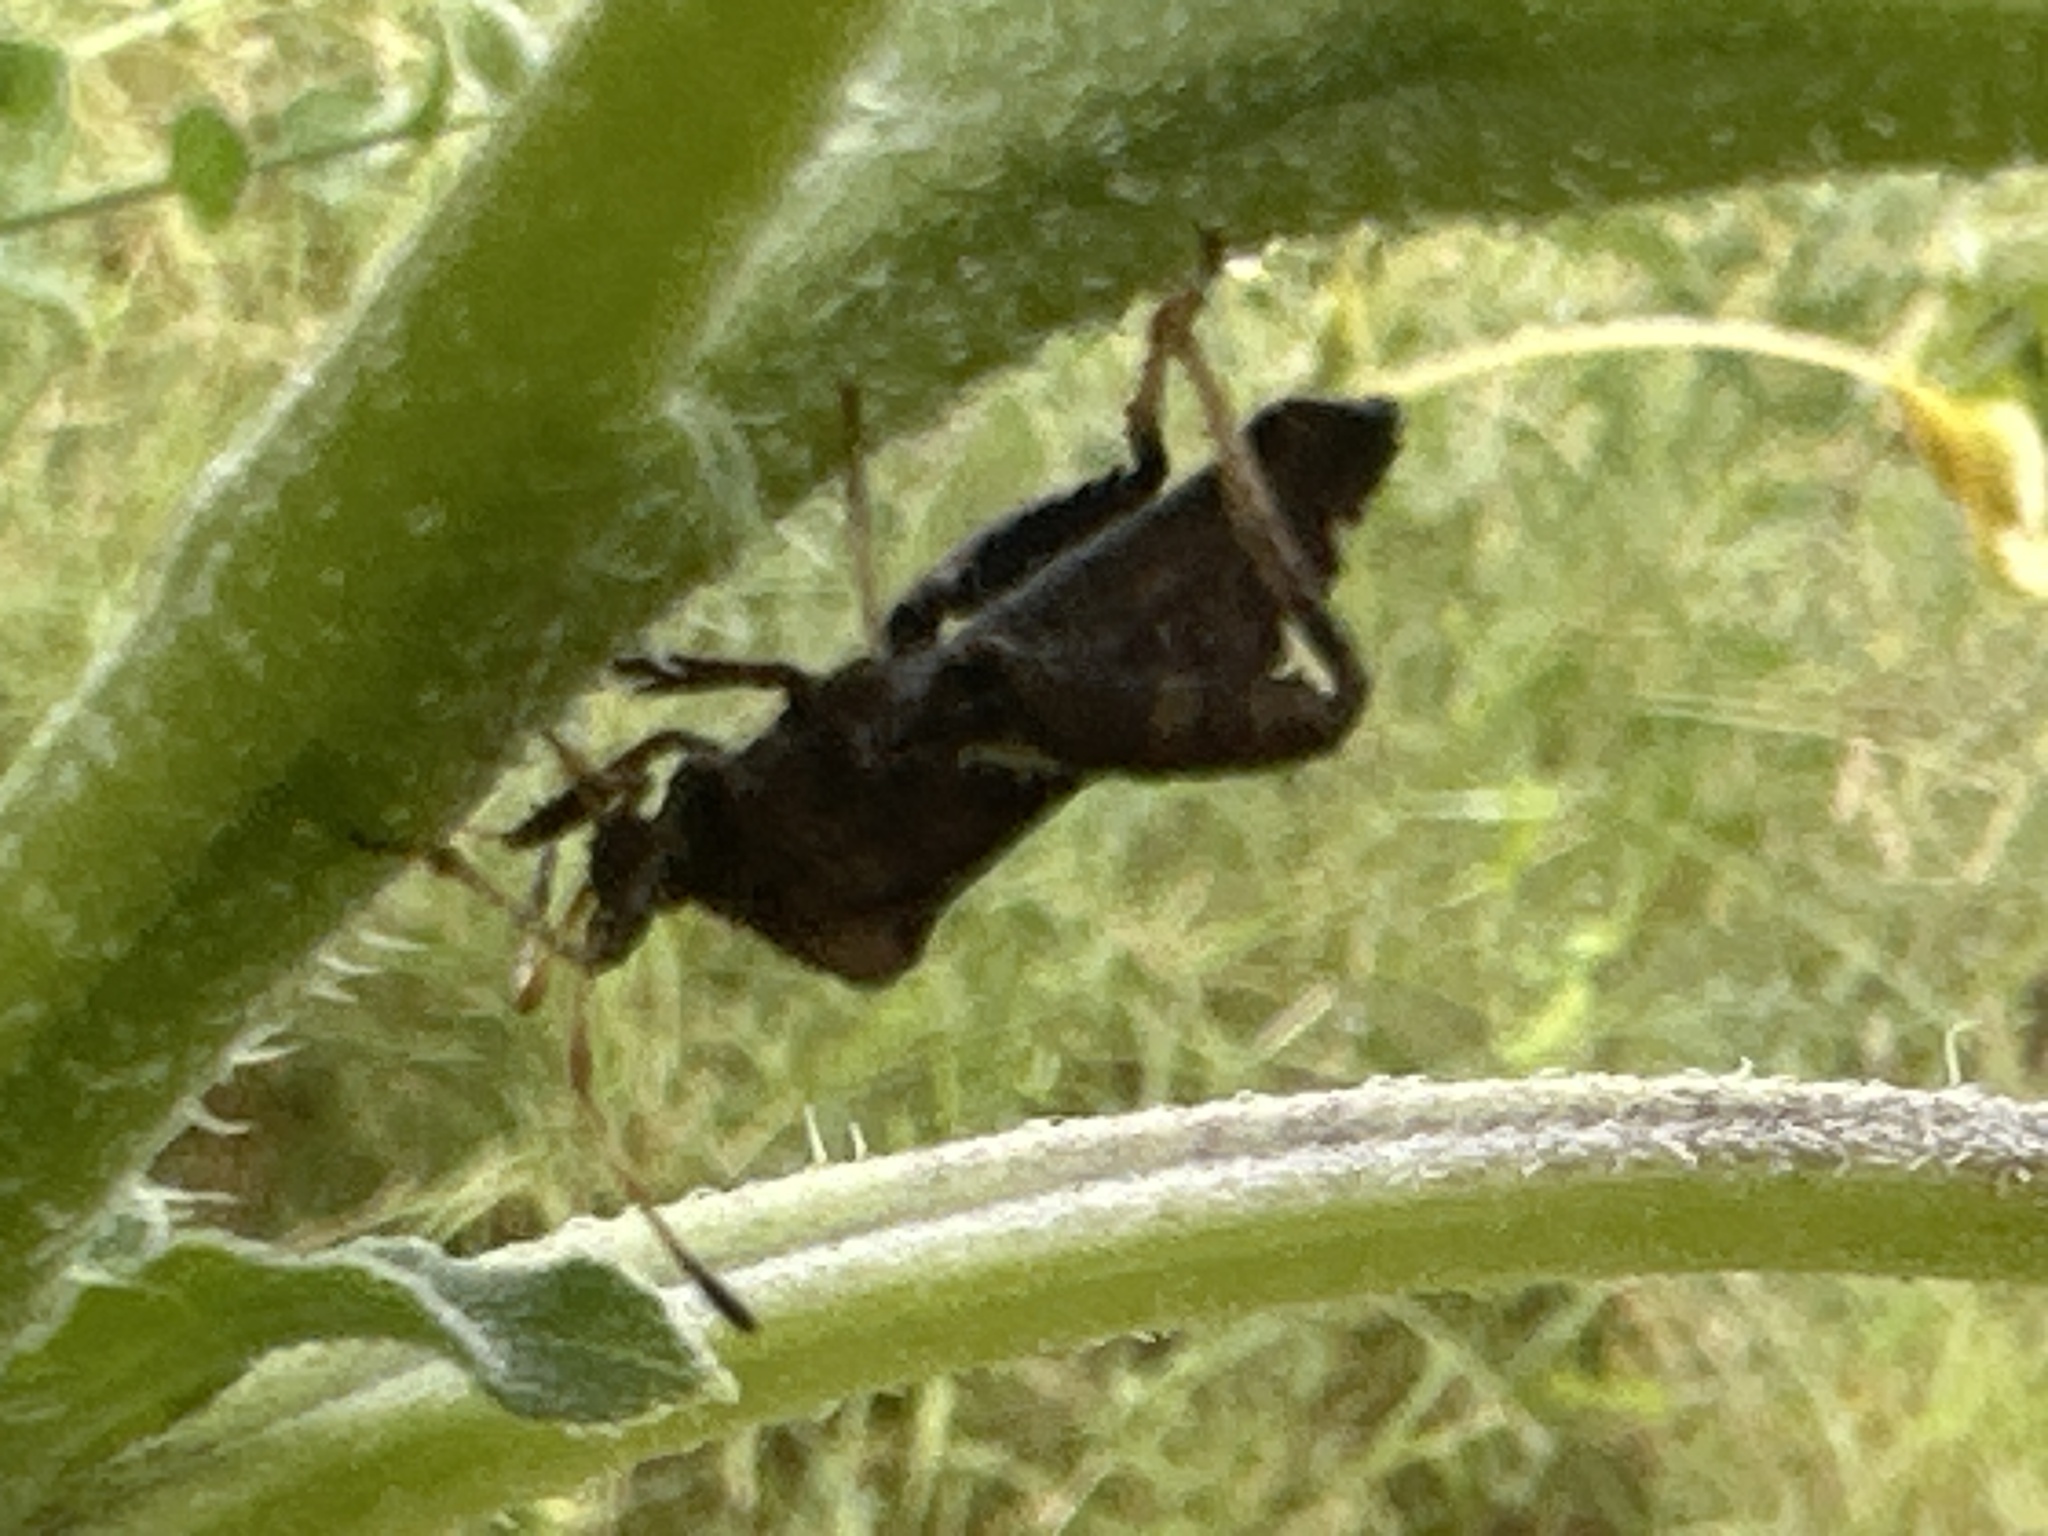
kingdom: Animalia
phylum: Arthropoda
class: Insecta
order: Hemiptera
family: Coreidae
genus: Euthochtha
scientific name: Euthochtha galeator
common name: Helmeted squash bug
